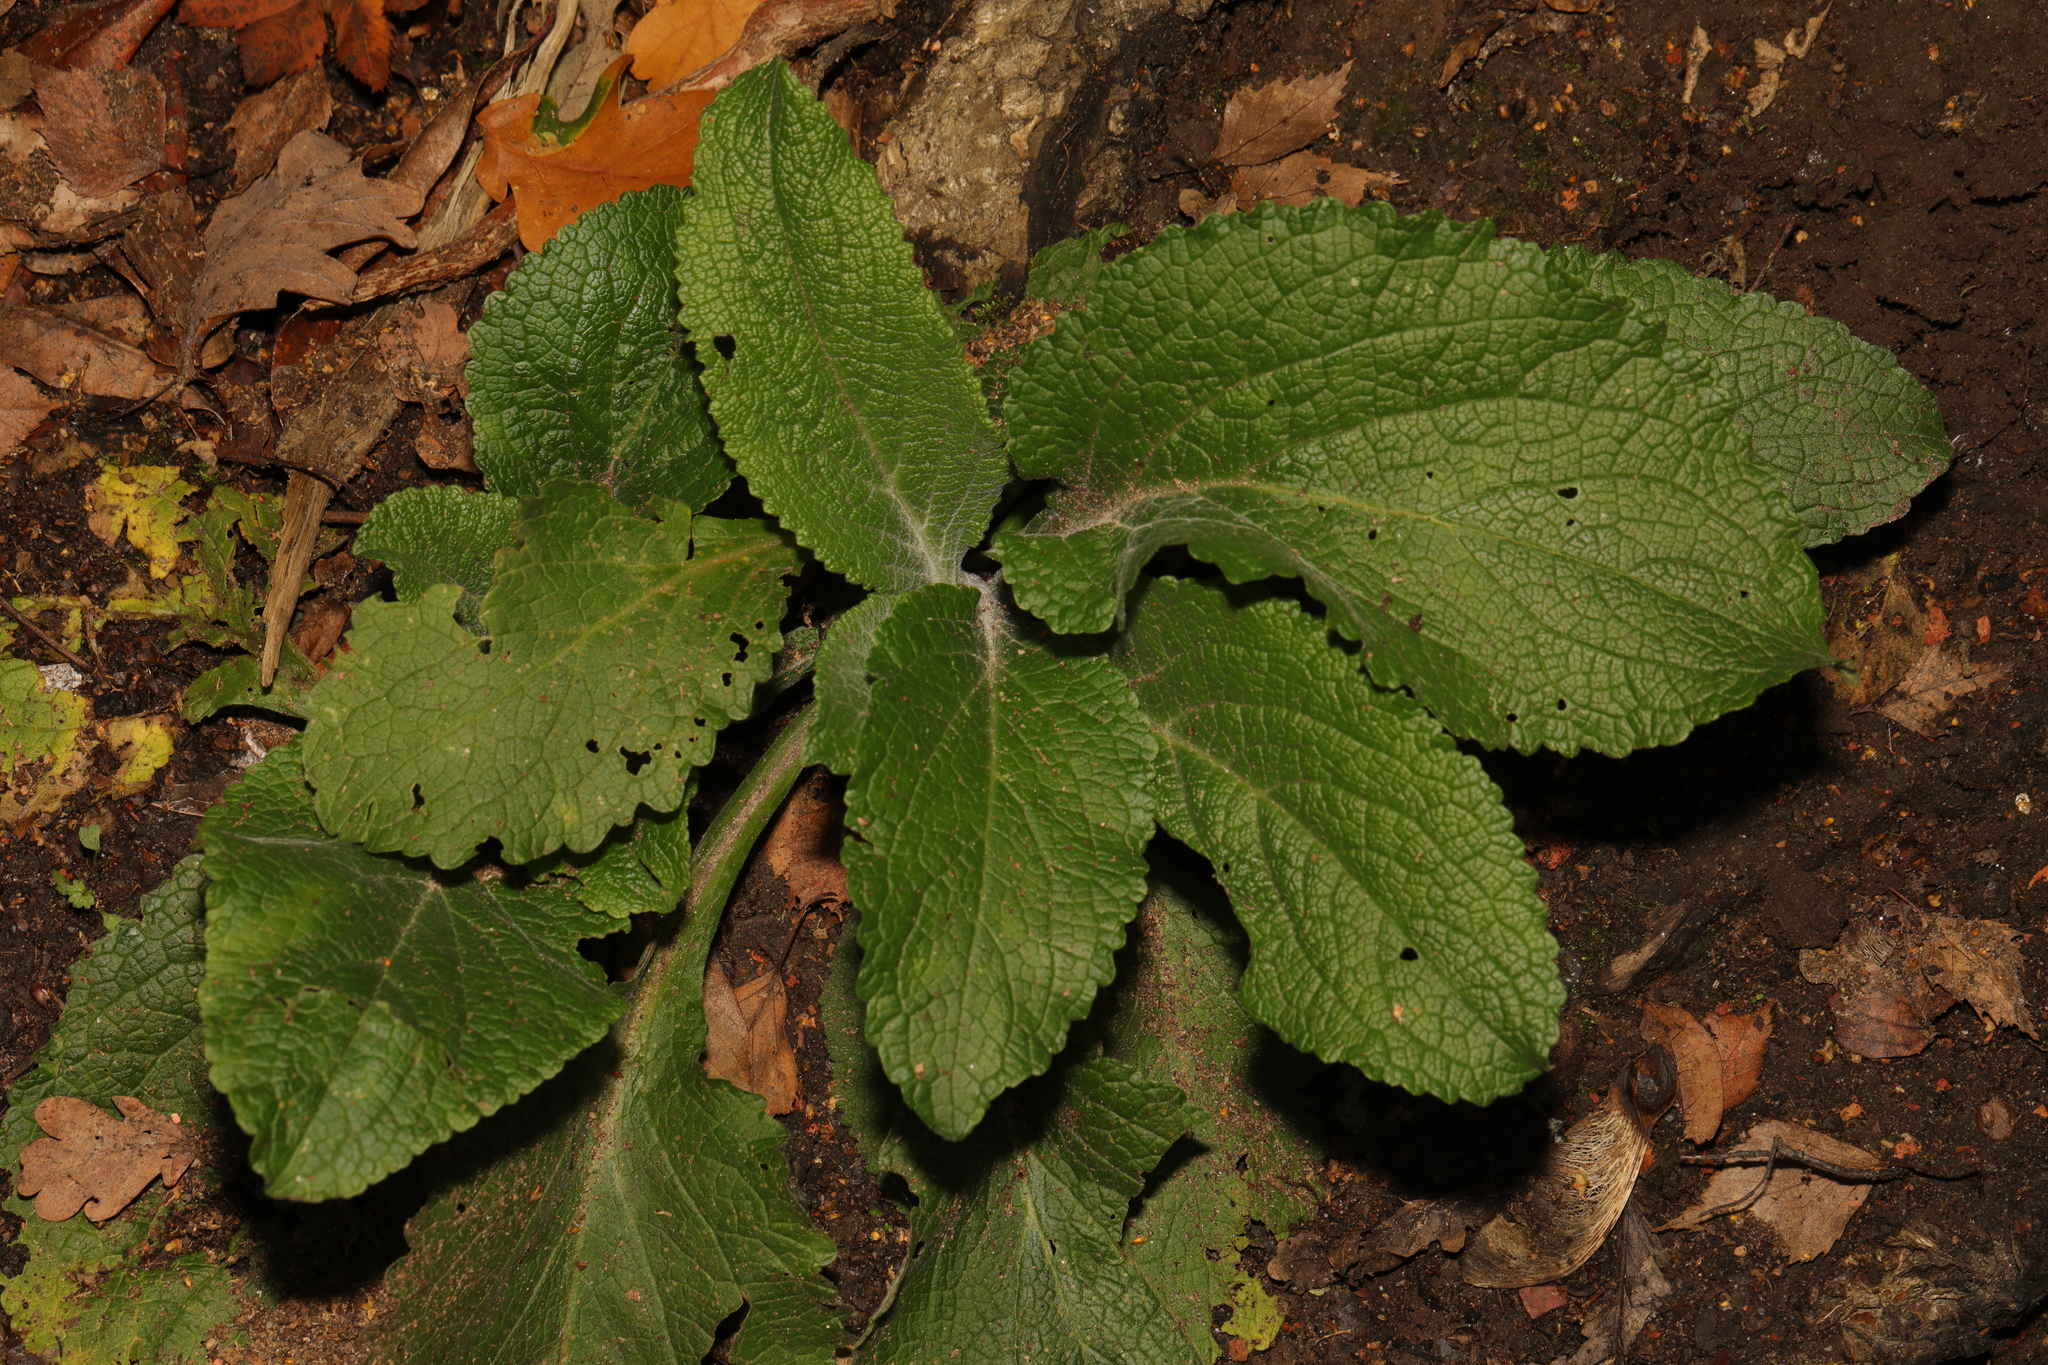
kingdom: Plantae
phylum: Tracheophyta
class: Magnoliopsida
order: Lamiales
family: Plantaginaceae
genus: Digitalis
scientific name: Digitalis purpurea
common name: Foxglove
